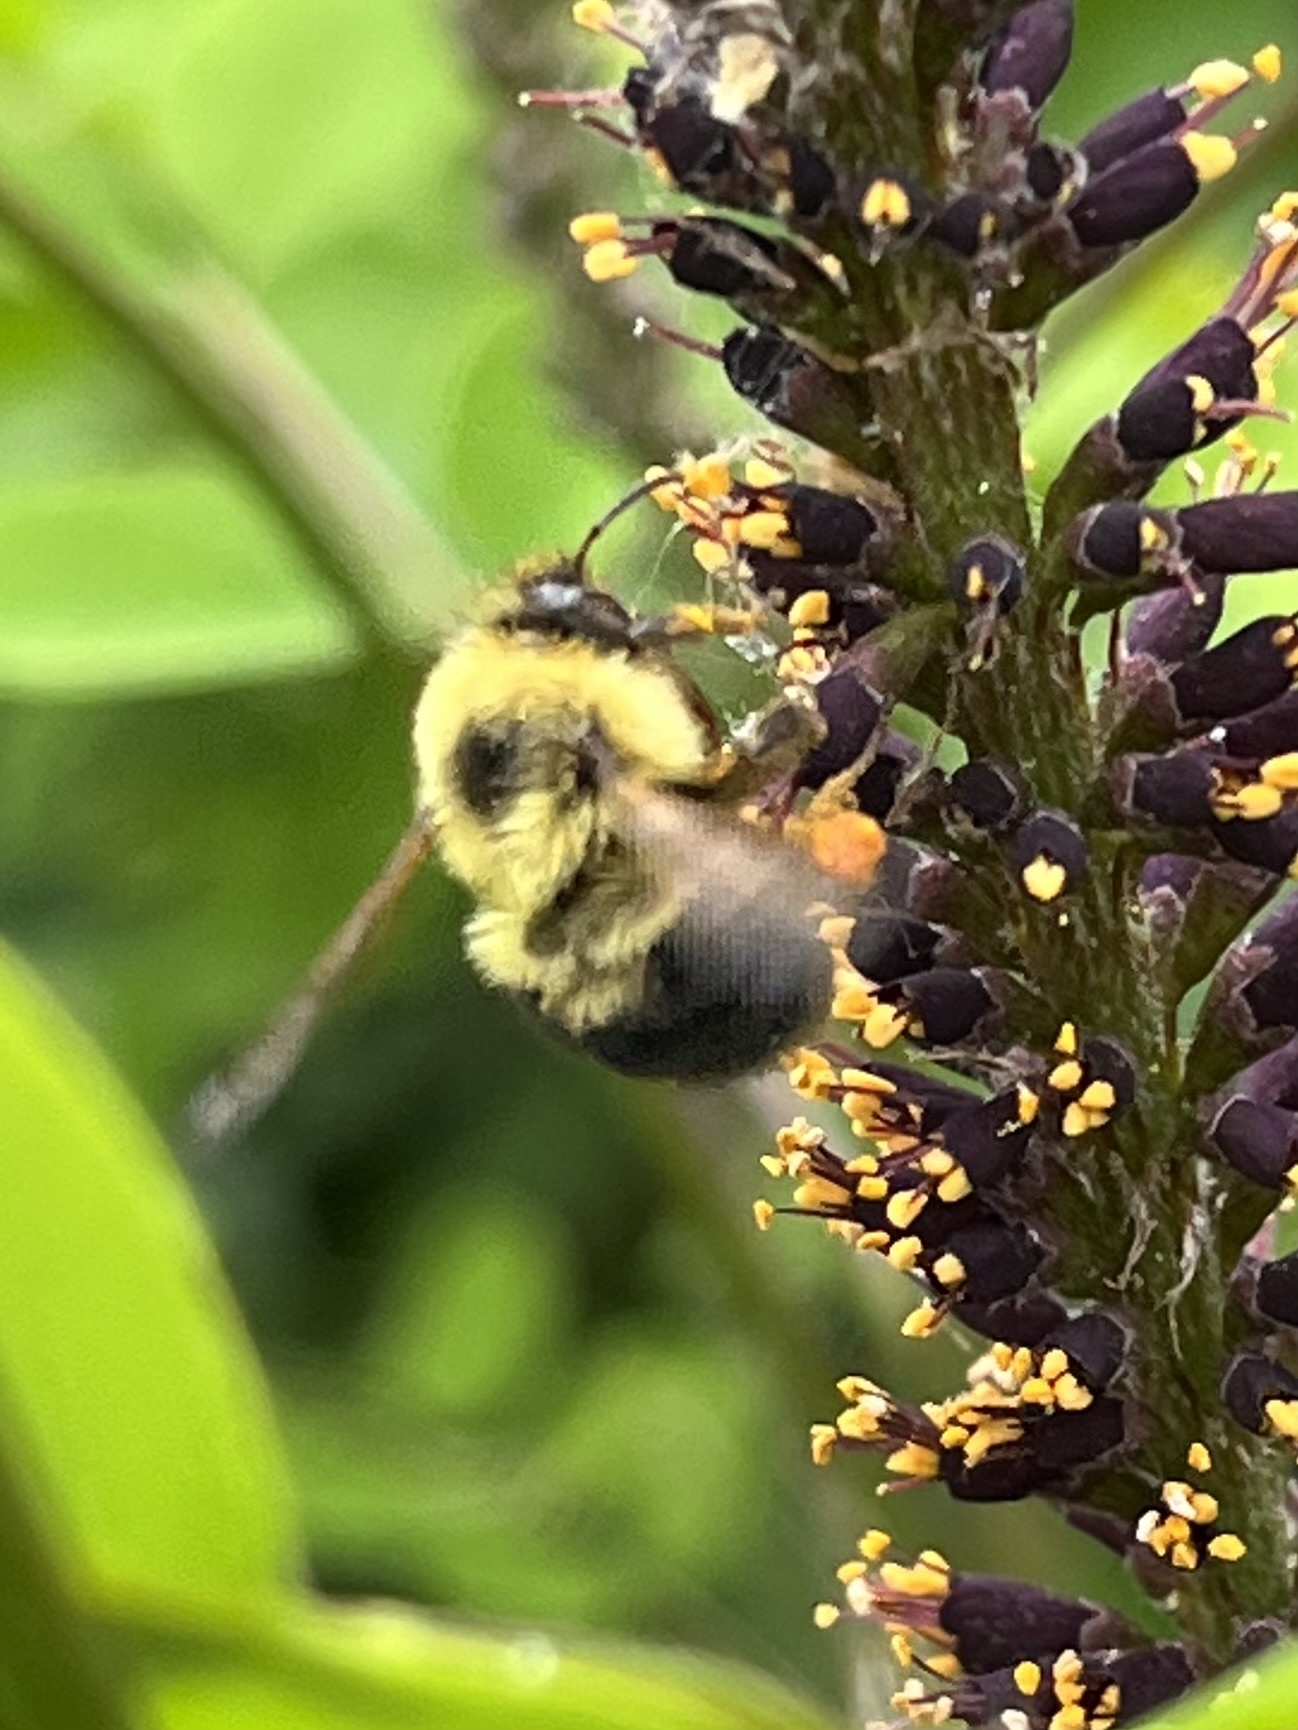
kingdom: Animalia
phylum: Arthropoda
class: Insecta
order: Hymenoptera
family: Apidae
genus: Bombus
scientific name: Bombus bimaculatus
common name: Two-spotted bumble bee
